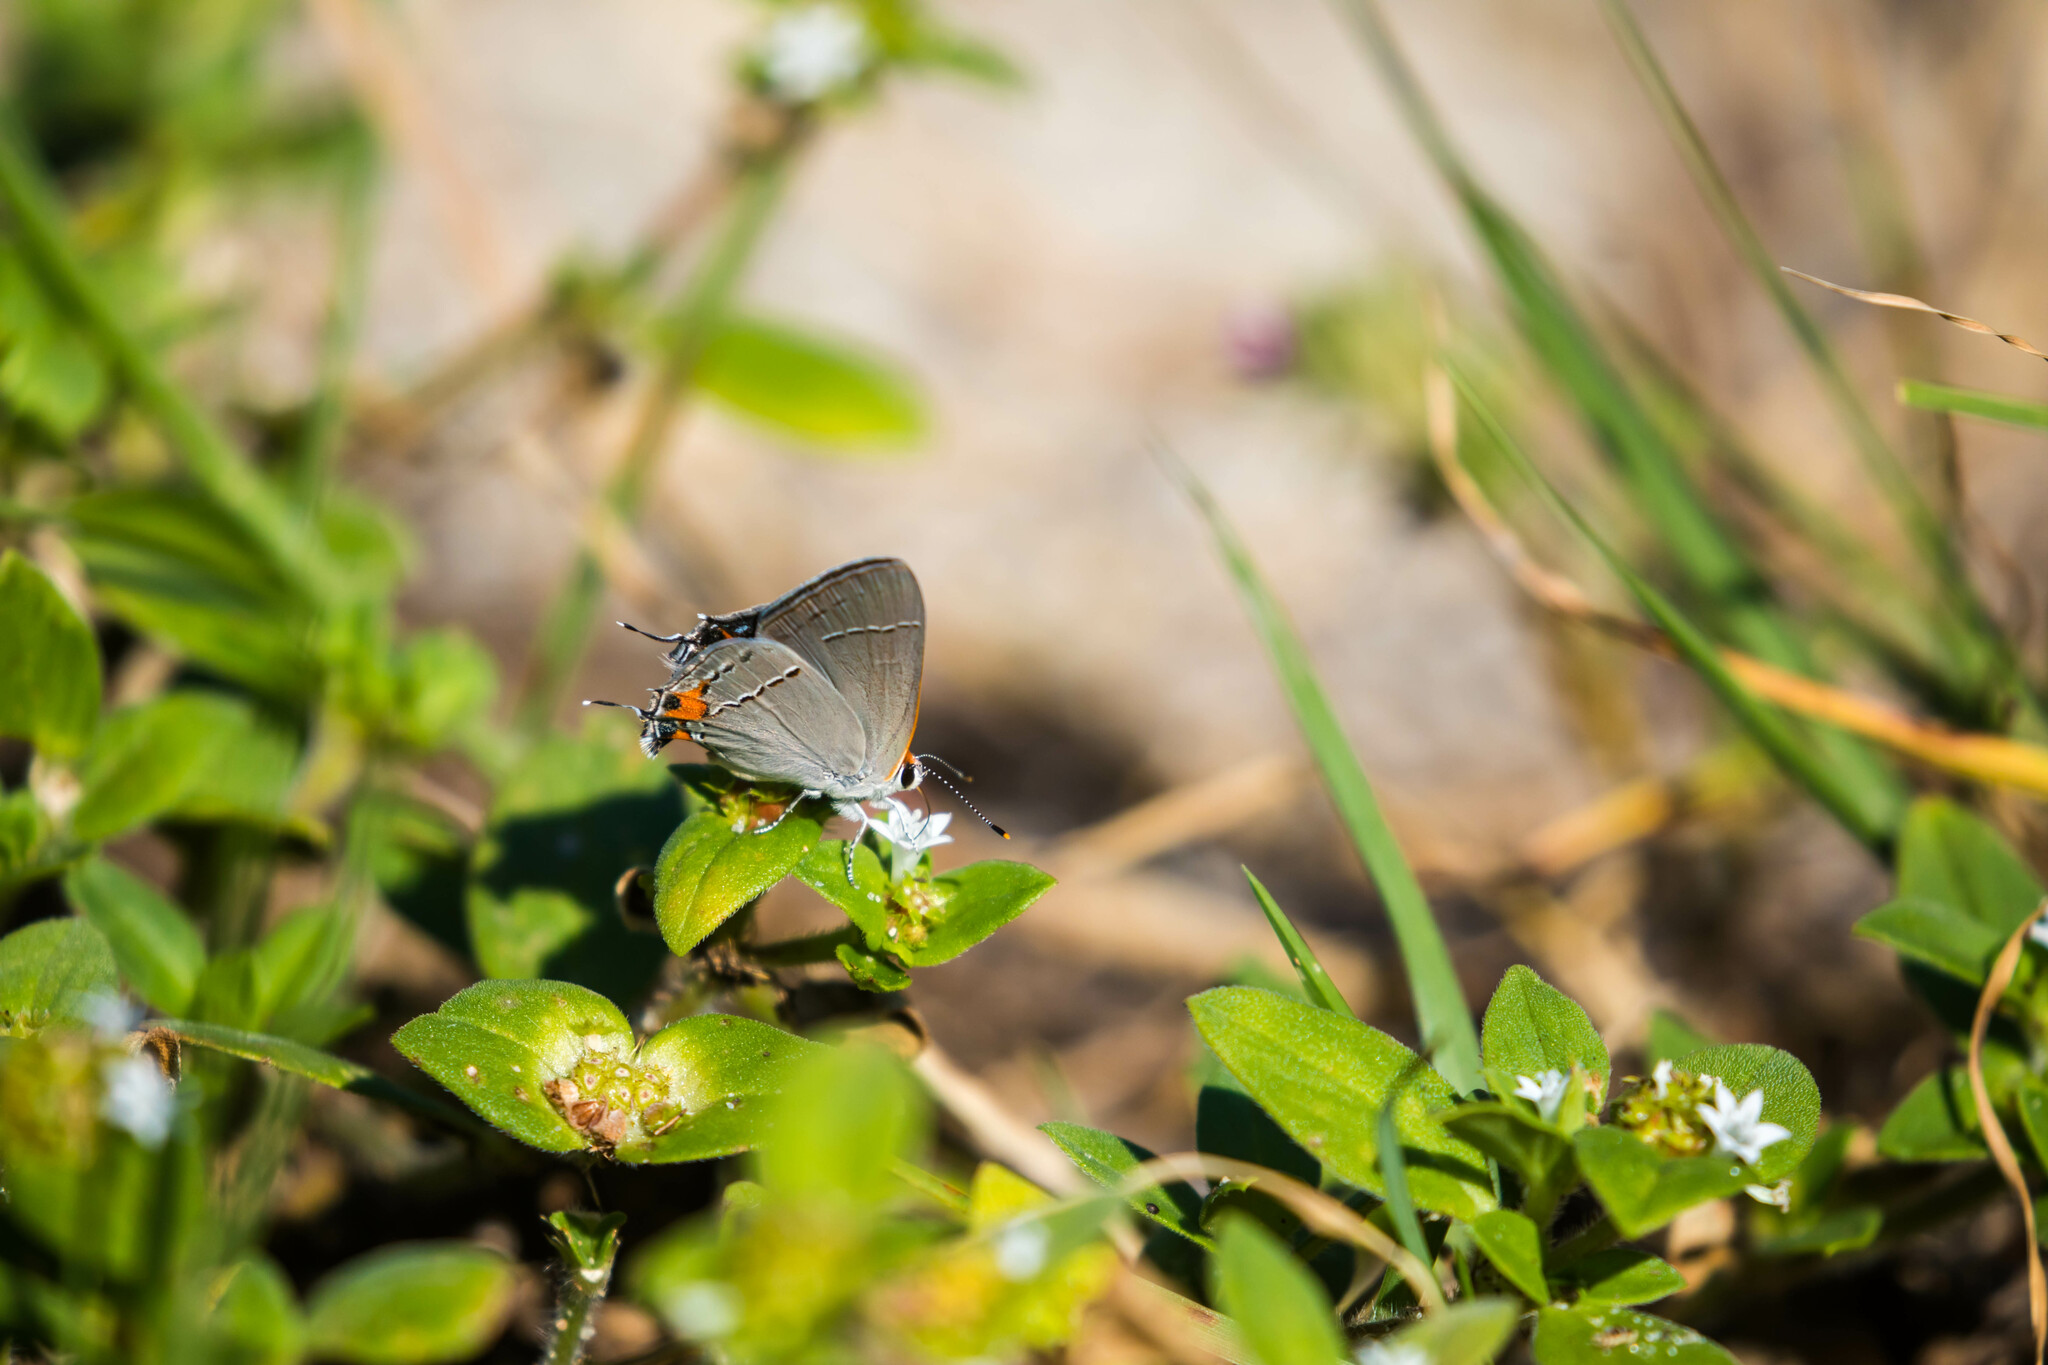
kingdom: Animalia
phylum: Arthropoda
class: Insecta
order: Lepidoptera
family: Lycaenidae
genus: Strymon
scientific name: Strymon melinus
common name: Gray hairstreak
